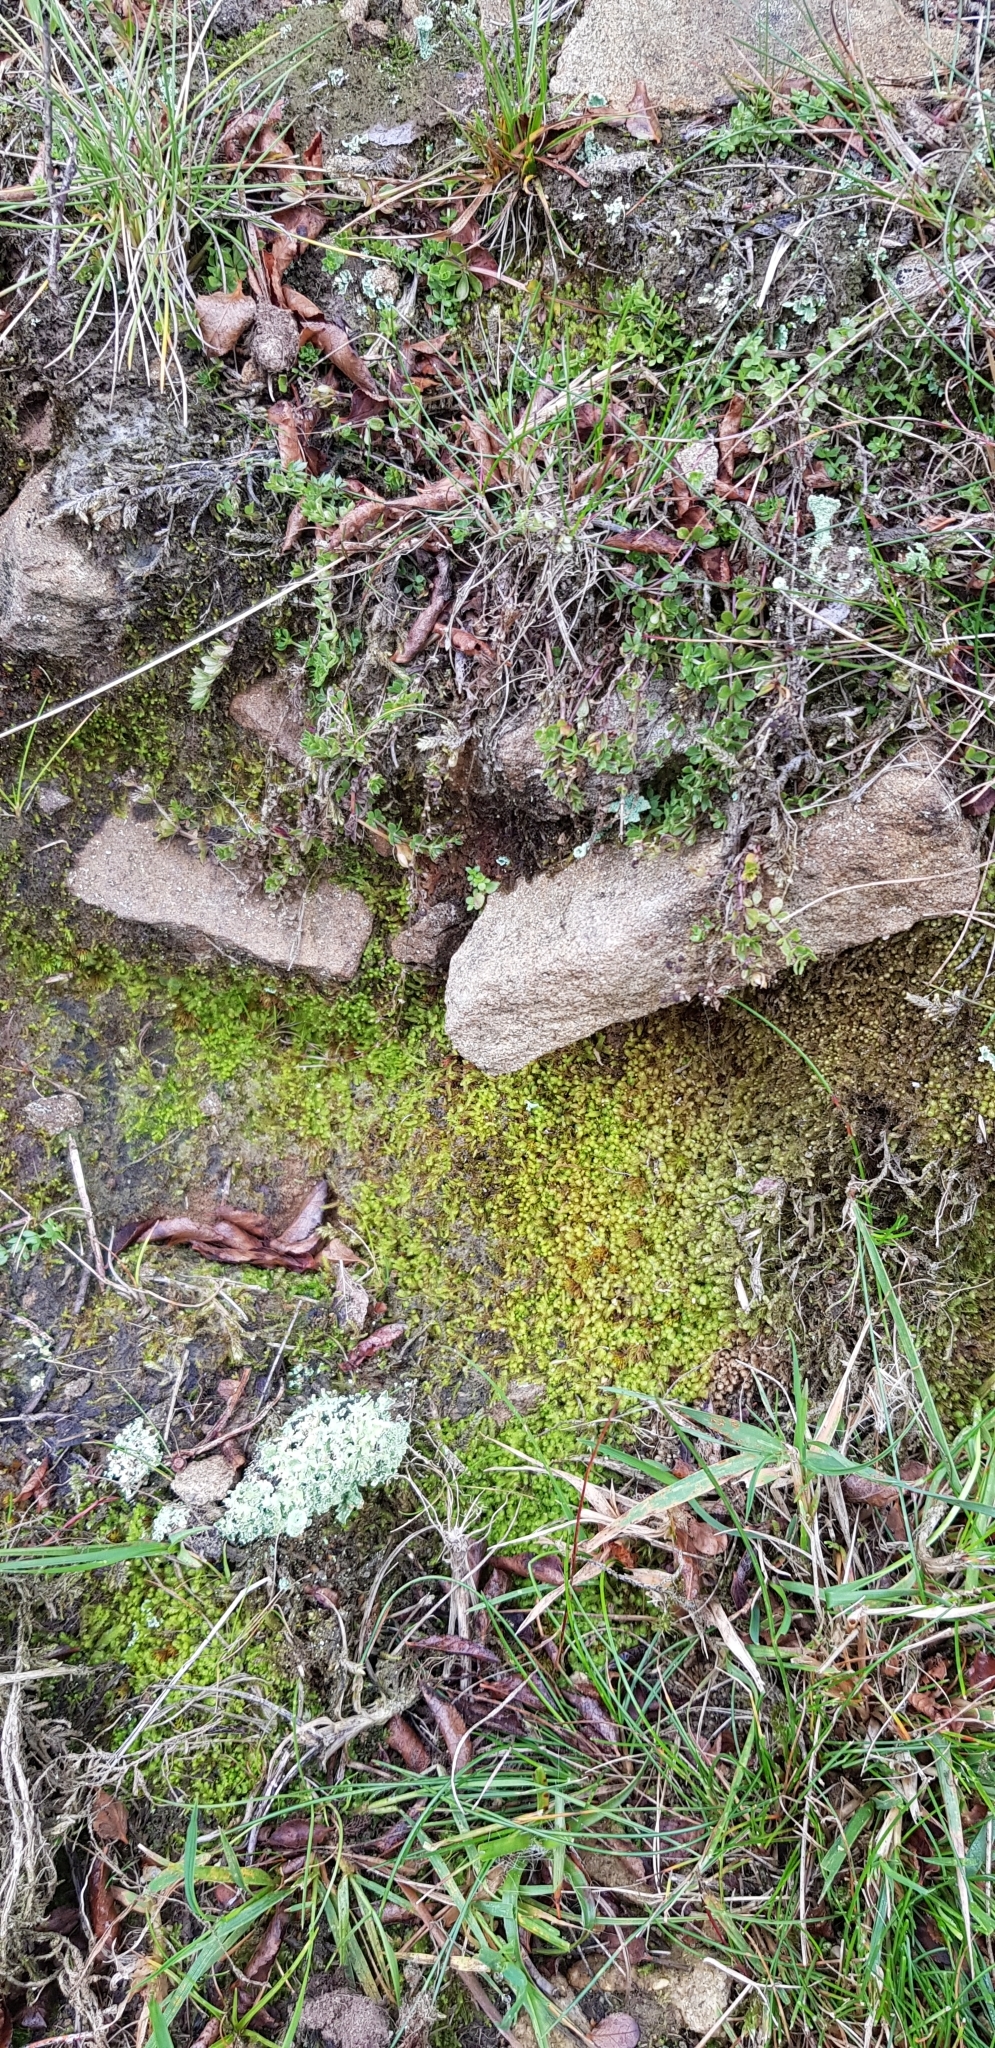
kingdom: Plantae
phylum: Marchantiophyta
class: Jungermanniopsida
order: Jungermanniales
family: Gymnomitriaceae
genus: Nardia
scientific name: Nardia scalaris
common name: Ladder flapwort
